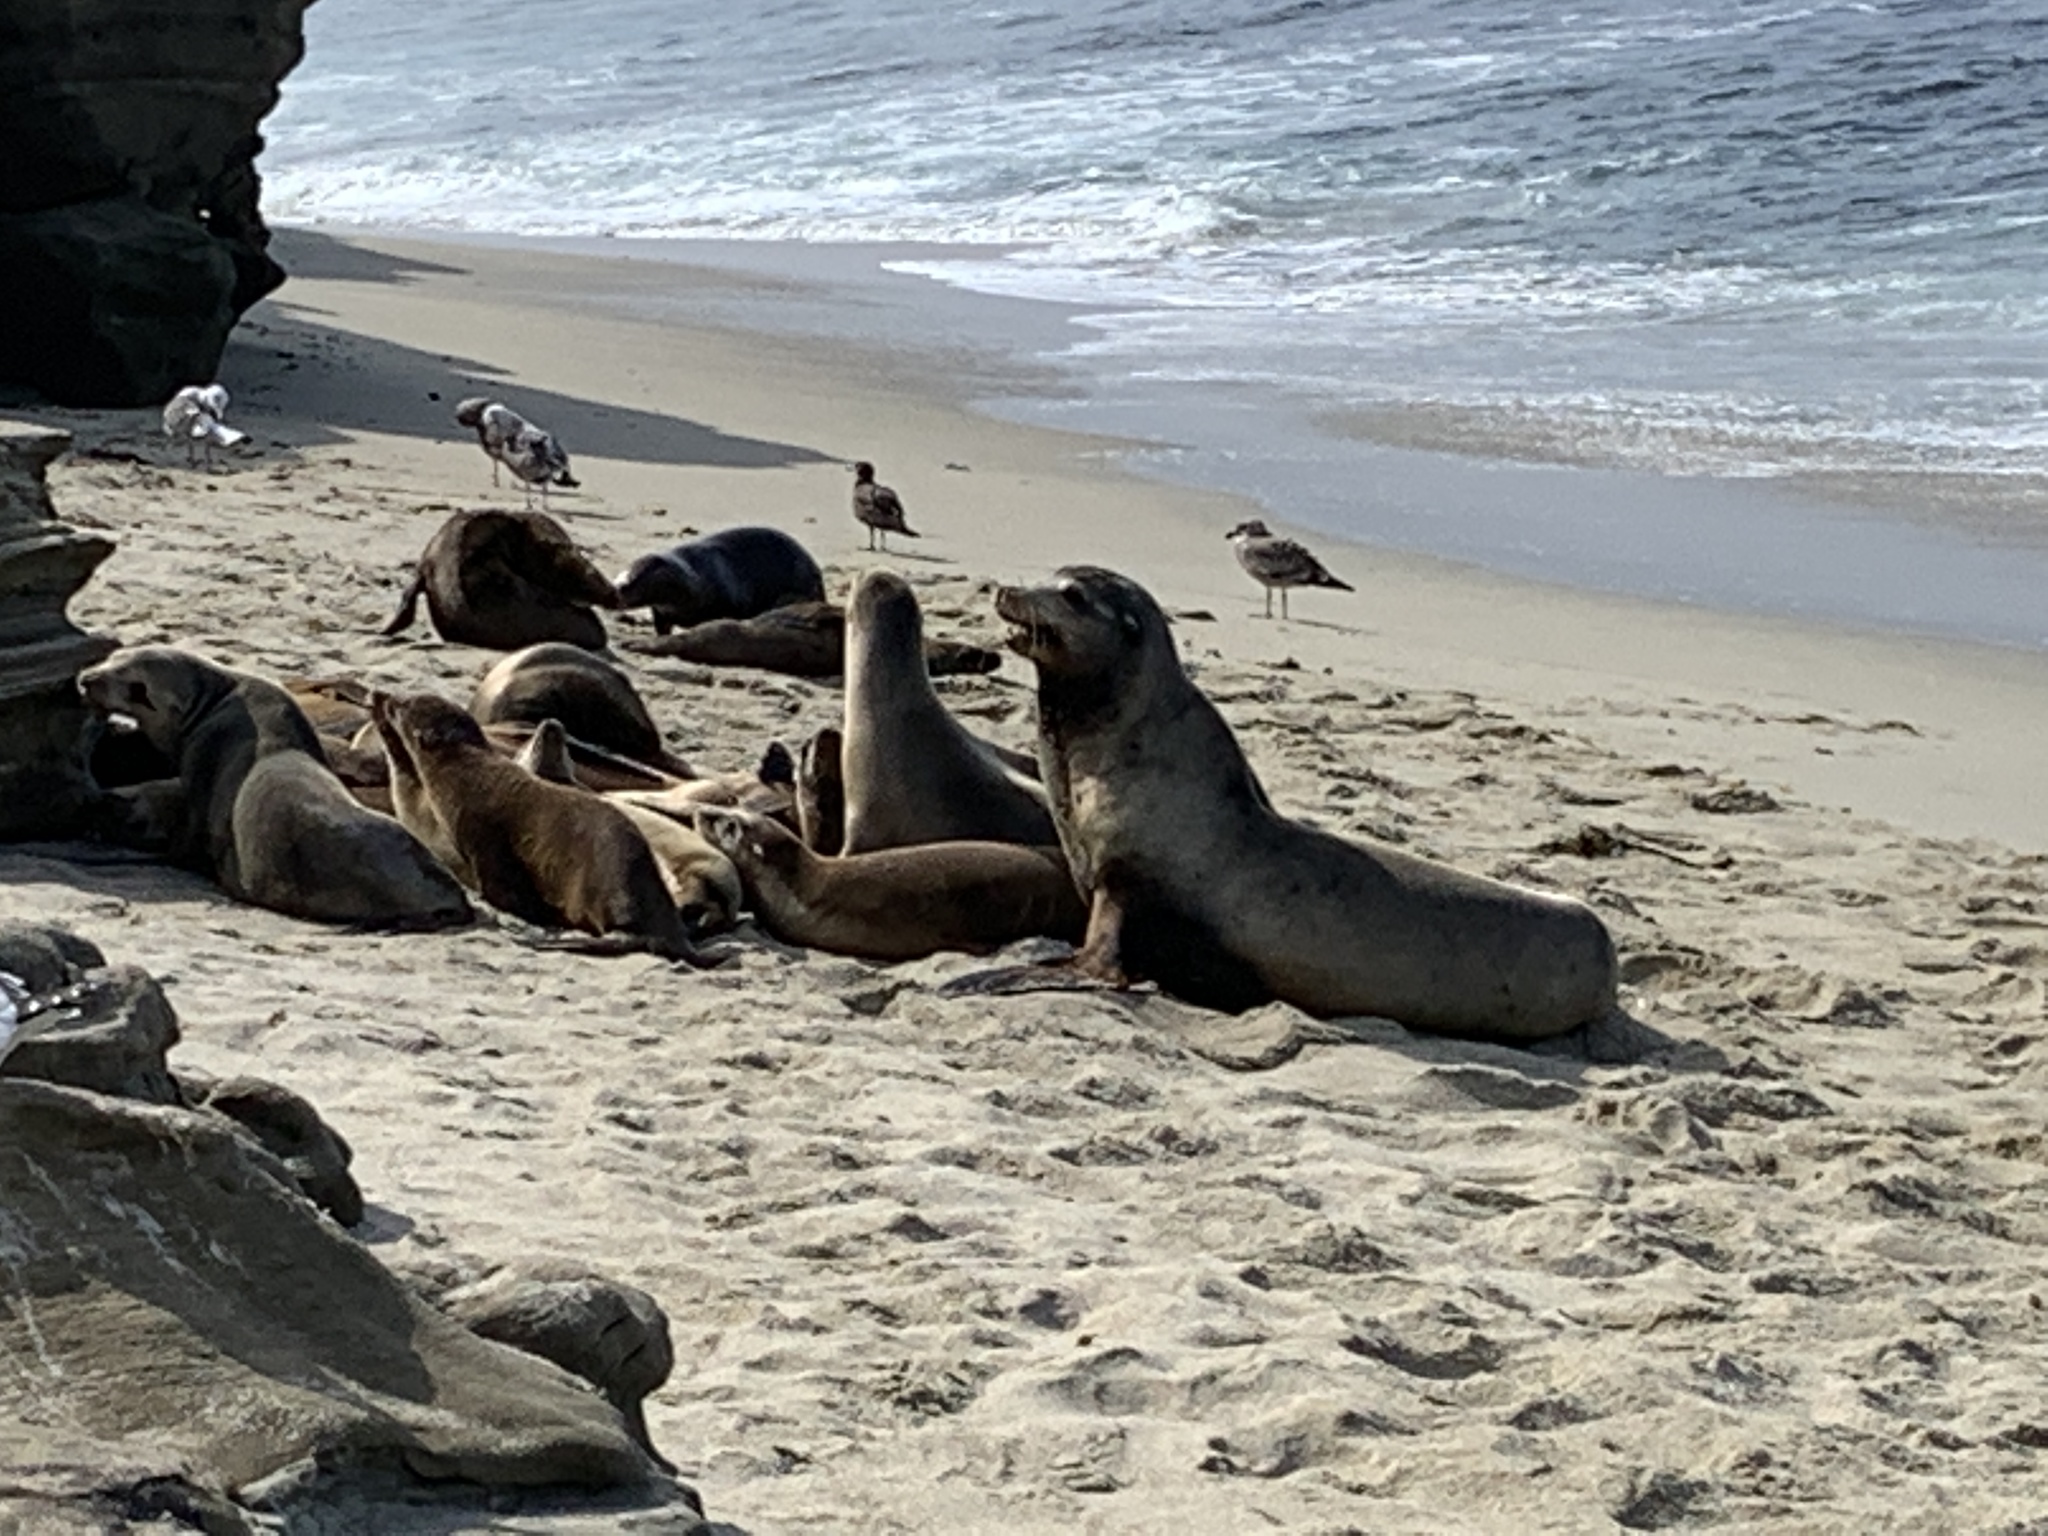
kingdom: Animalia
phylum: Chordata
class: Mammalia
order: Carnivora
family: Otariidae
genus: Zalophus
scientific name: Zalophus californianus
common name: California sea lion
